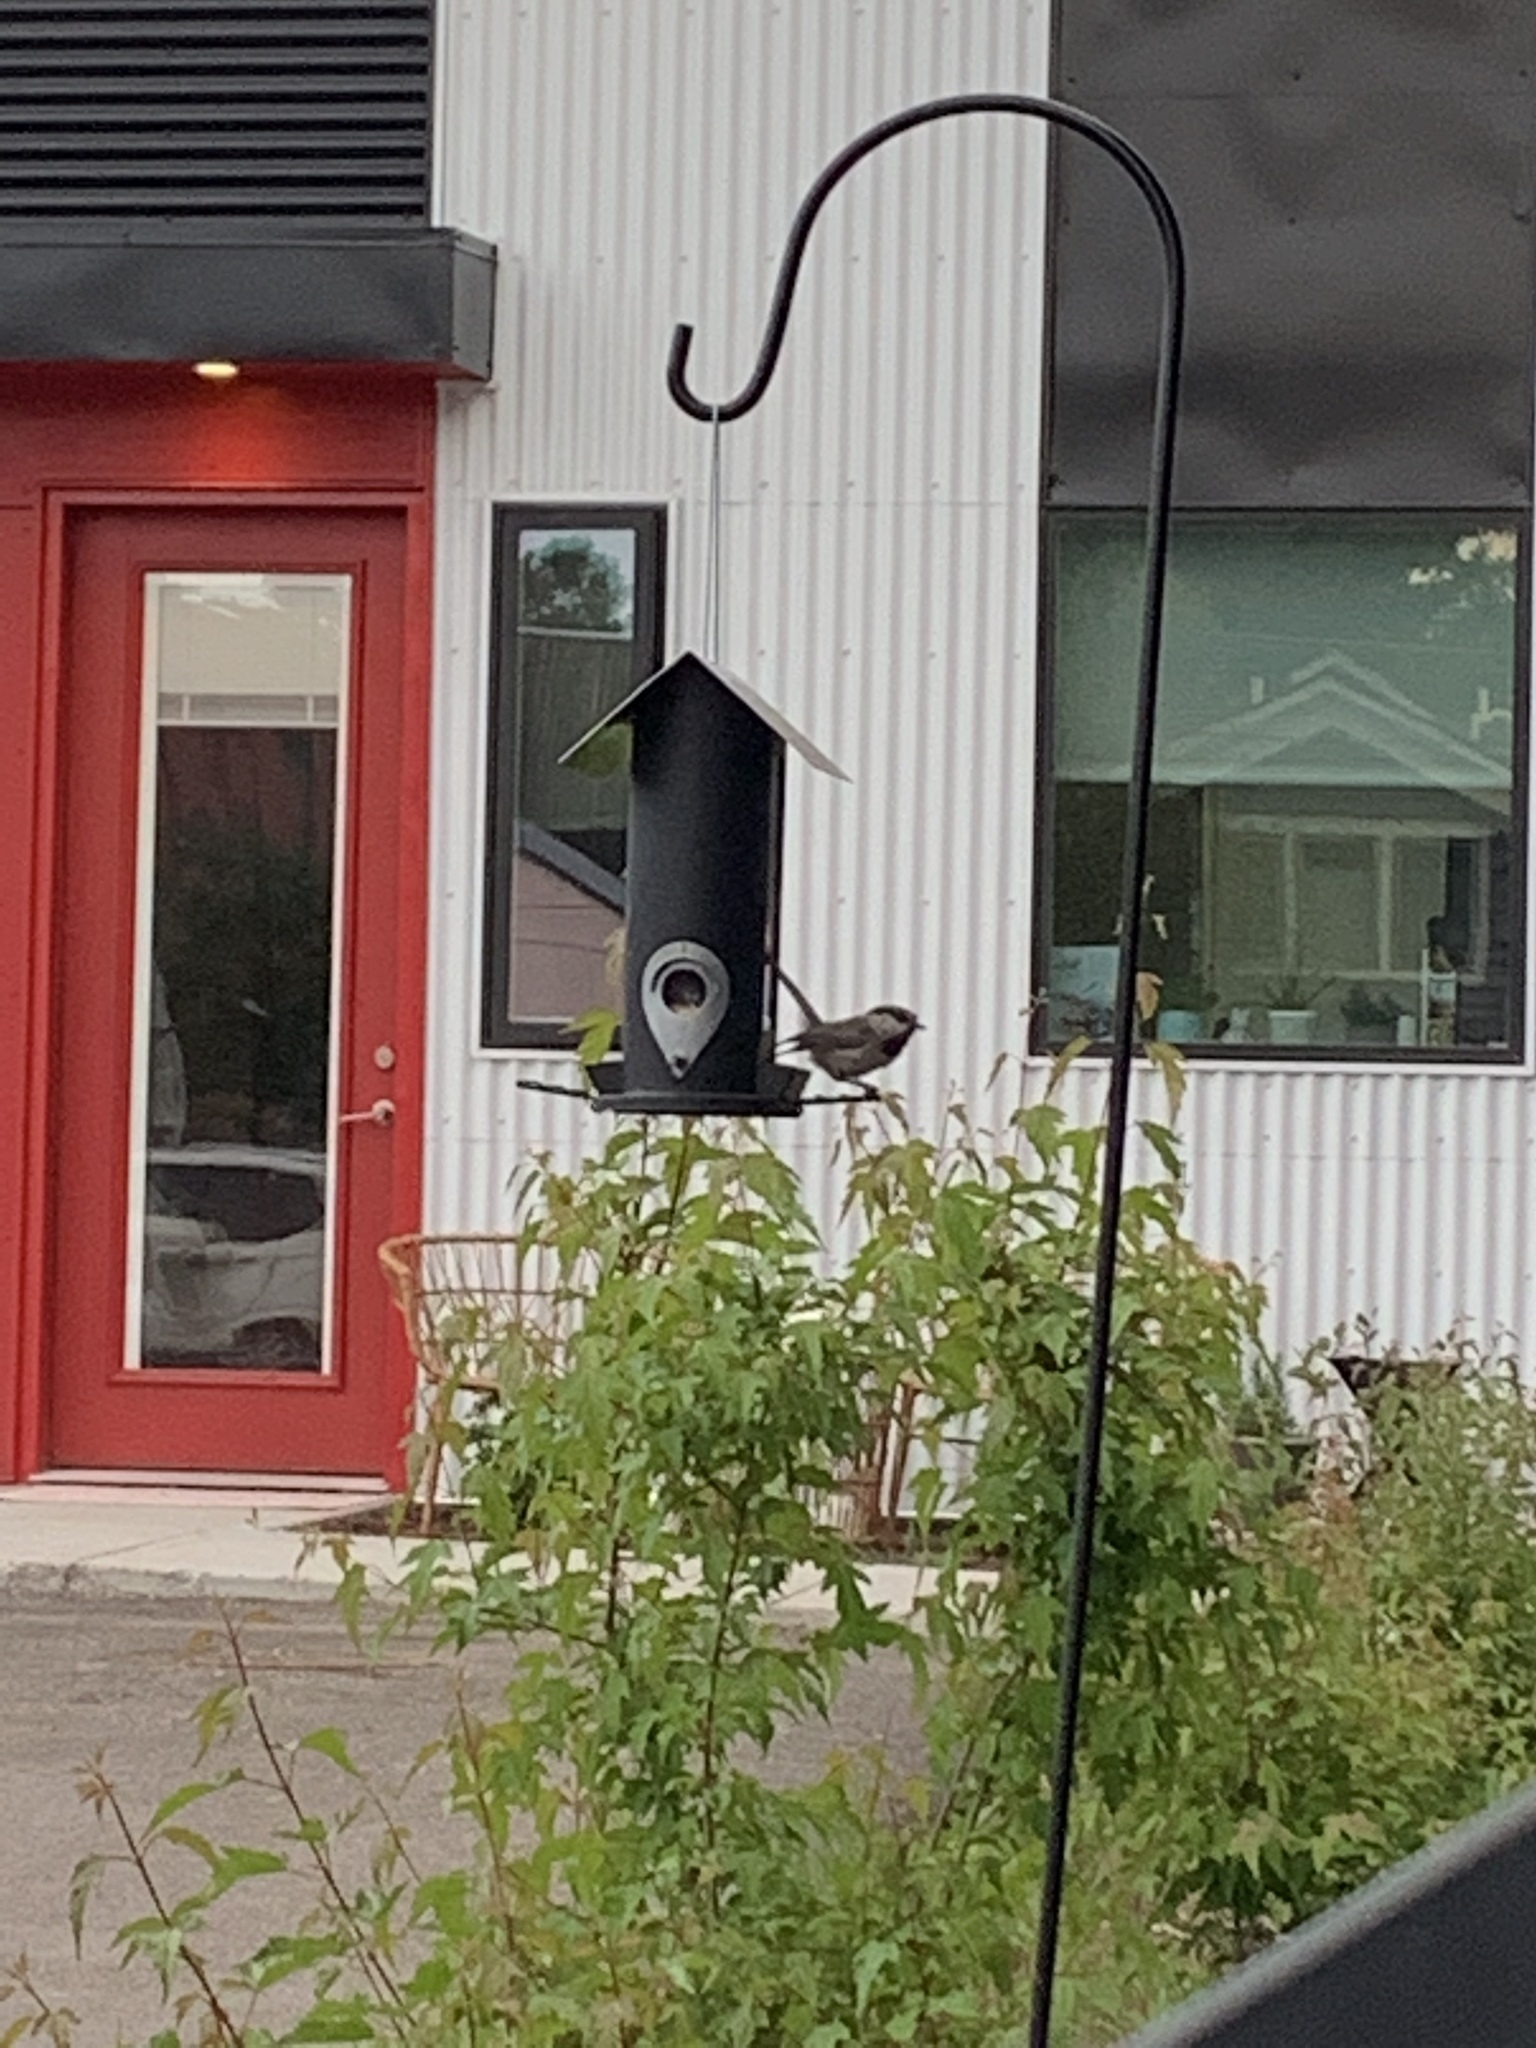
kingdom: Animalia
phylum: Chordata
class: Aves
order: Passeriformes
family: Paridae
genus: Poecile
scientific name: Poecile gambeli
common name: Mountain chickadee
